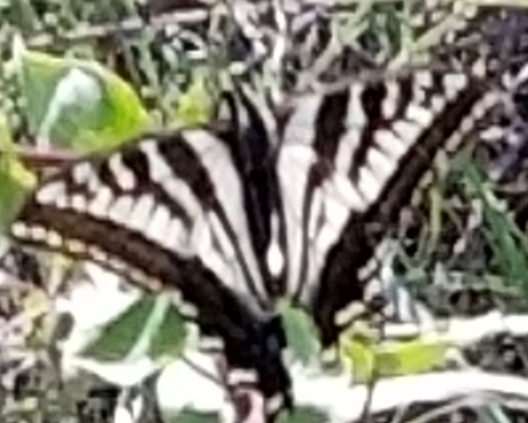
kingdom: Animalia
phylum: Arthropoda
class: Insecta
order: Lepidoptera
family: Papilionidae
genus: Papilio
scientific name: Papilio eurymedon
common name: Pale tiger swallowtail
